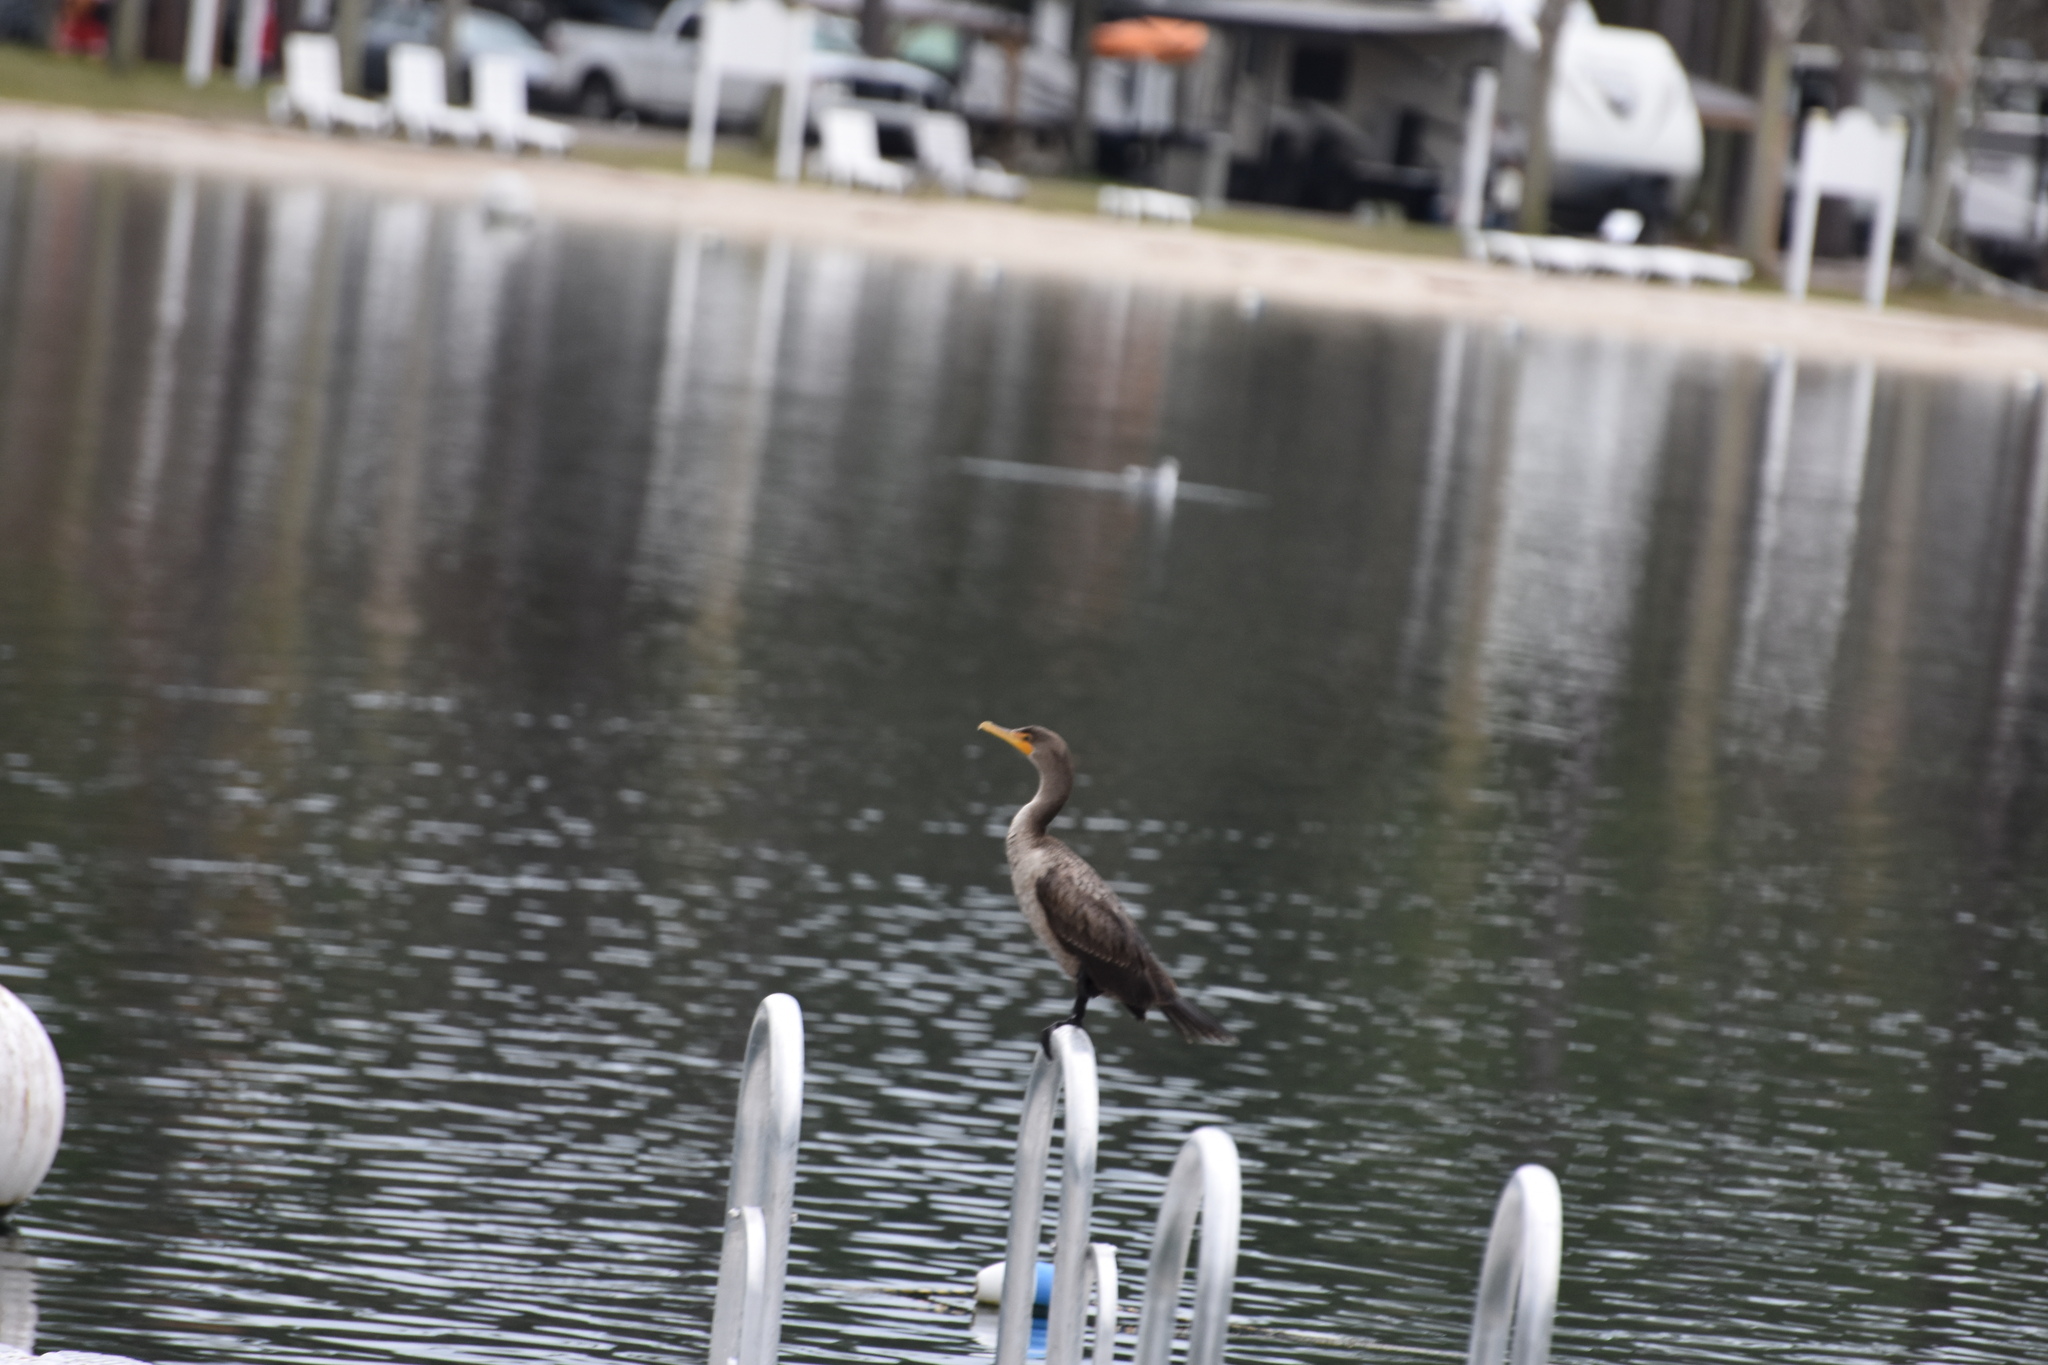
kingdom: Animalia
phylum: Chordata
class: Aves
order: Suliformes
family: Phalacrocoracidae
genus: Phalacrocorax
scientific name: Phalacrocorax auritus
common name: Double-crested cormorant
